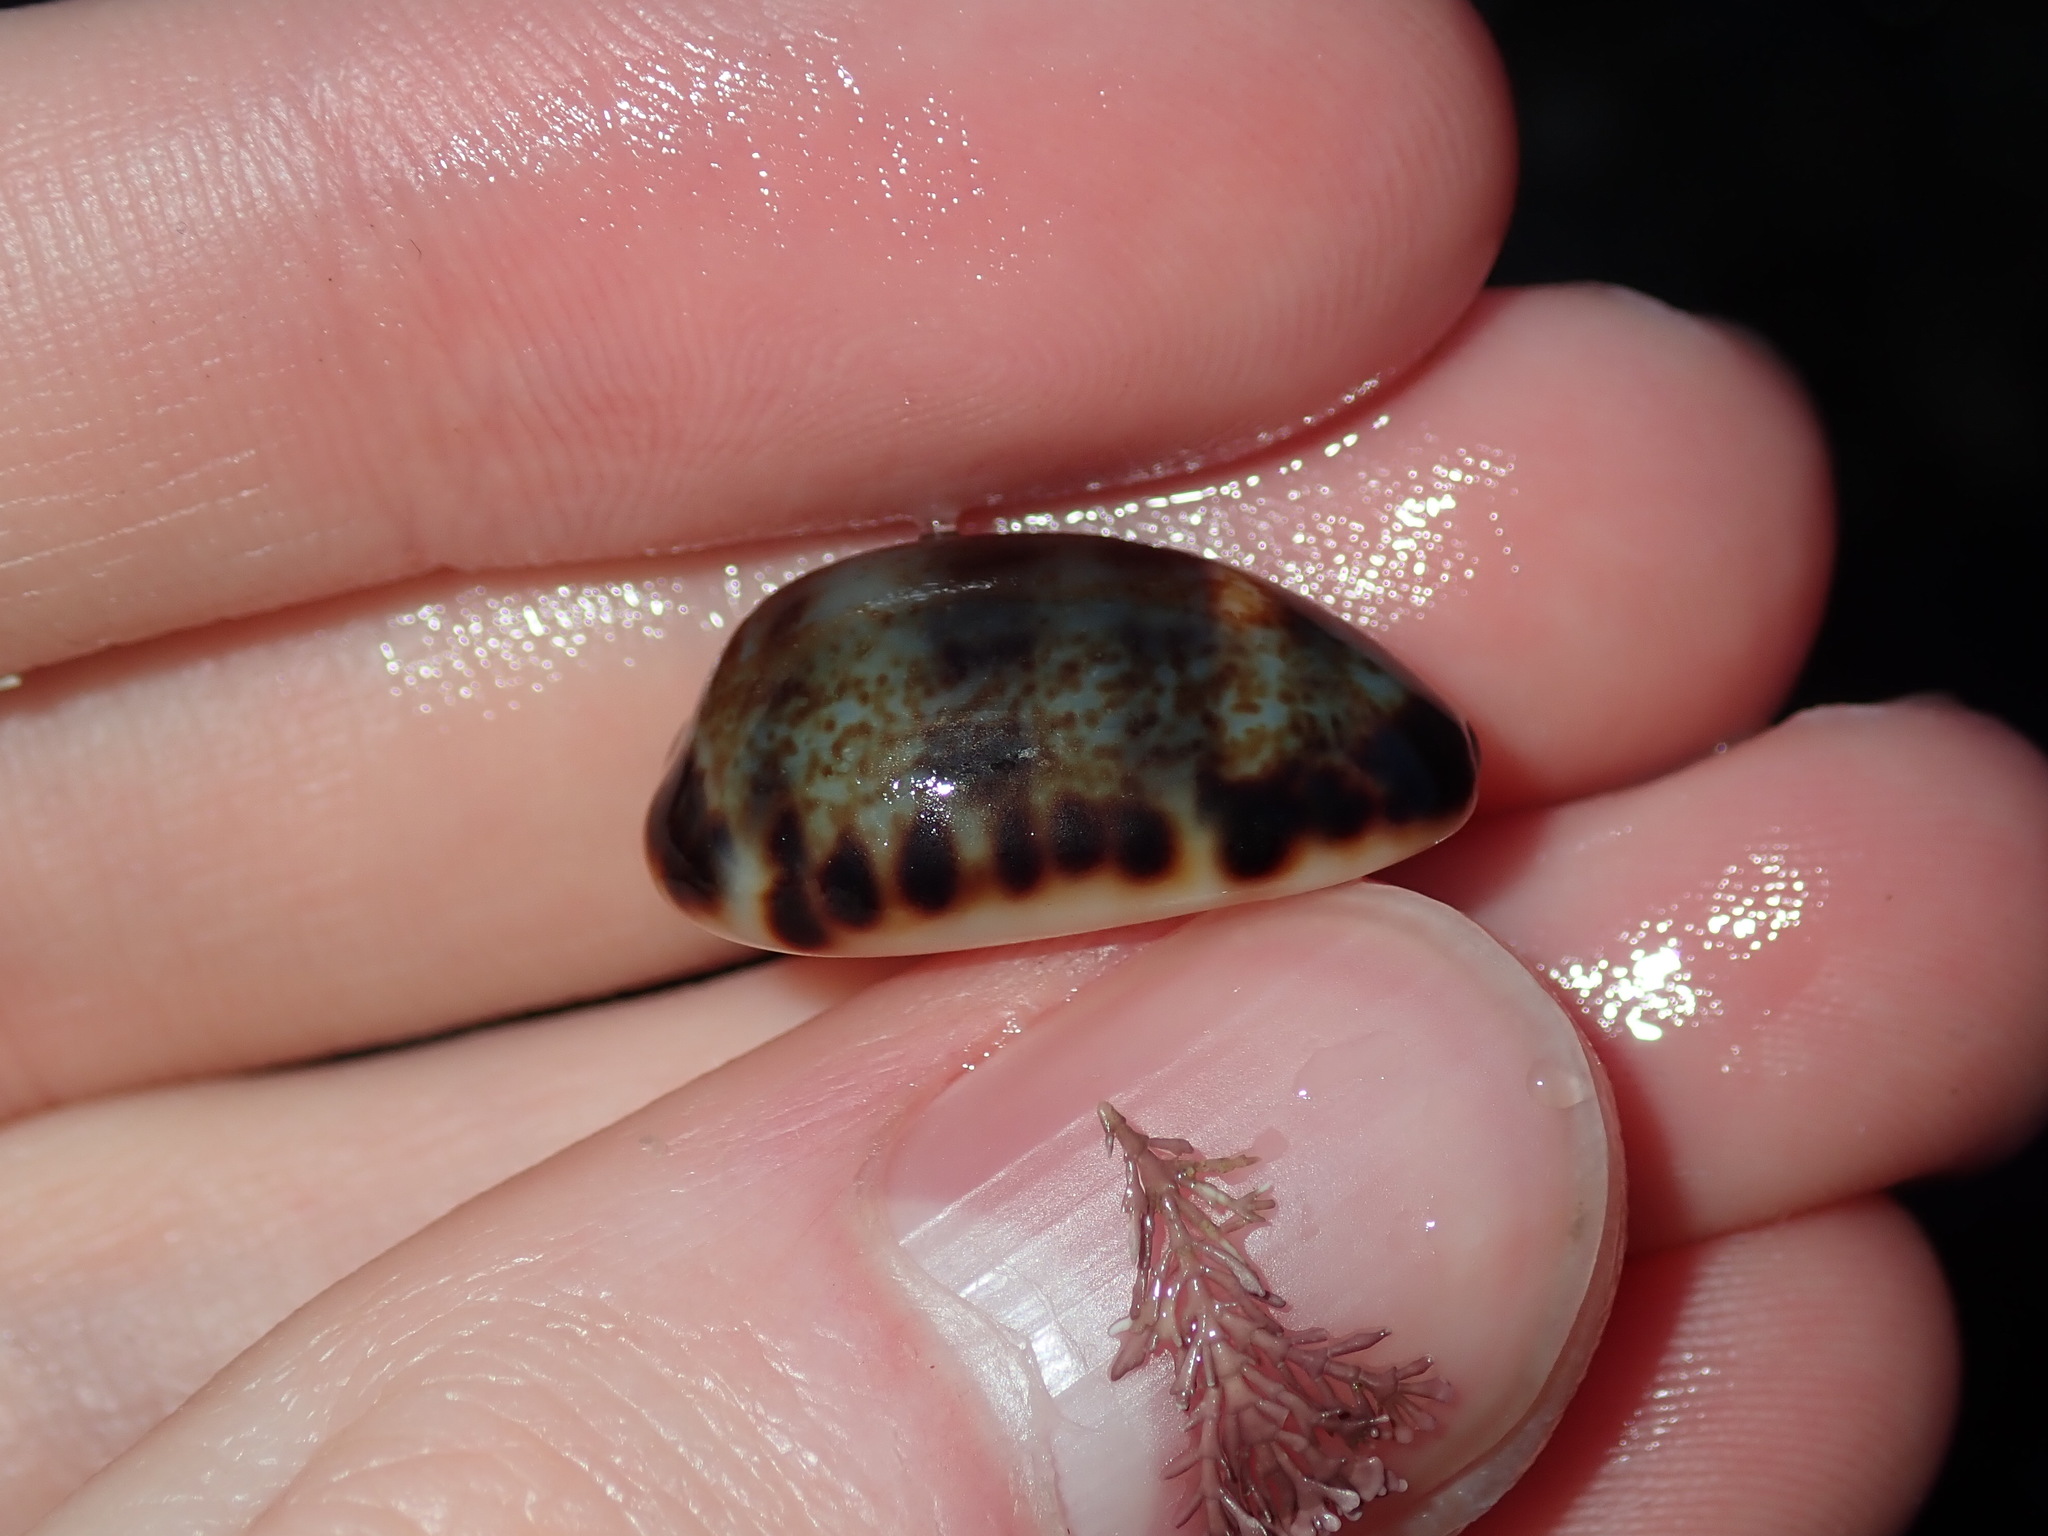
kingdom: Animalia
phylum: Mollusca
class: Gastropoda
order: Littorinimorpha
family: Cypraeidae
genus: Melicerona
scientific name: Melicerona listeri
